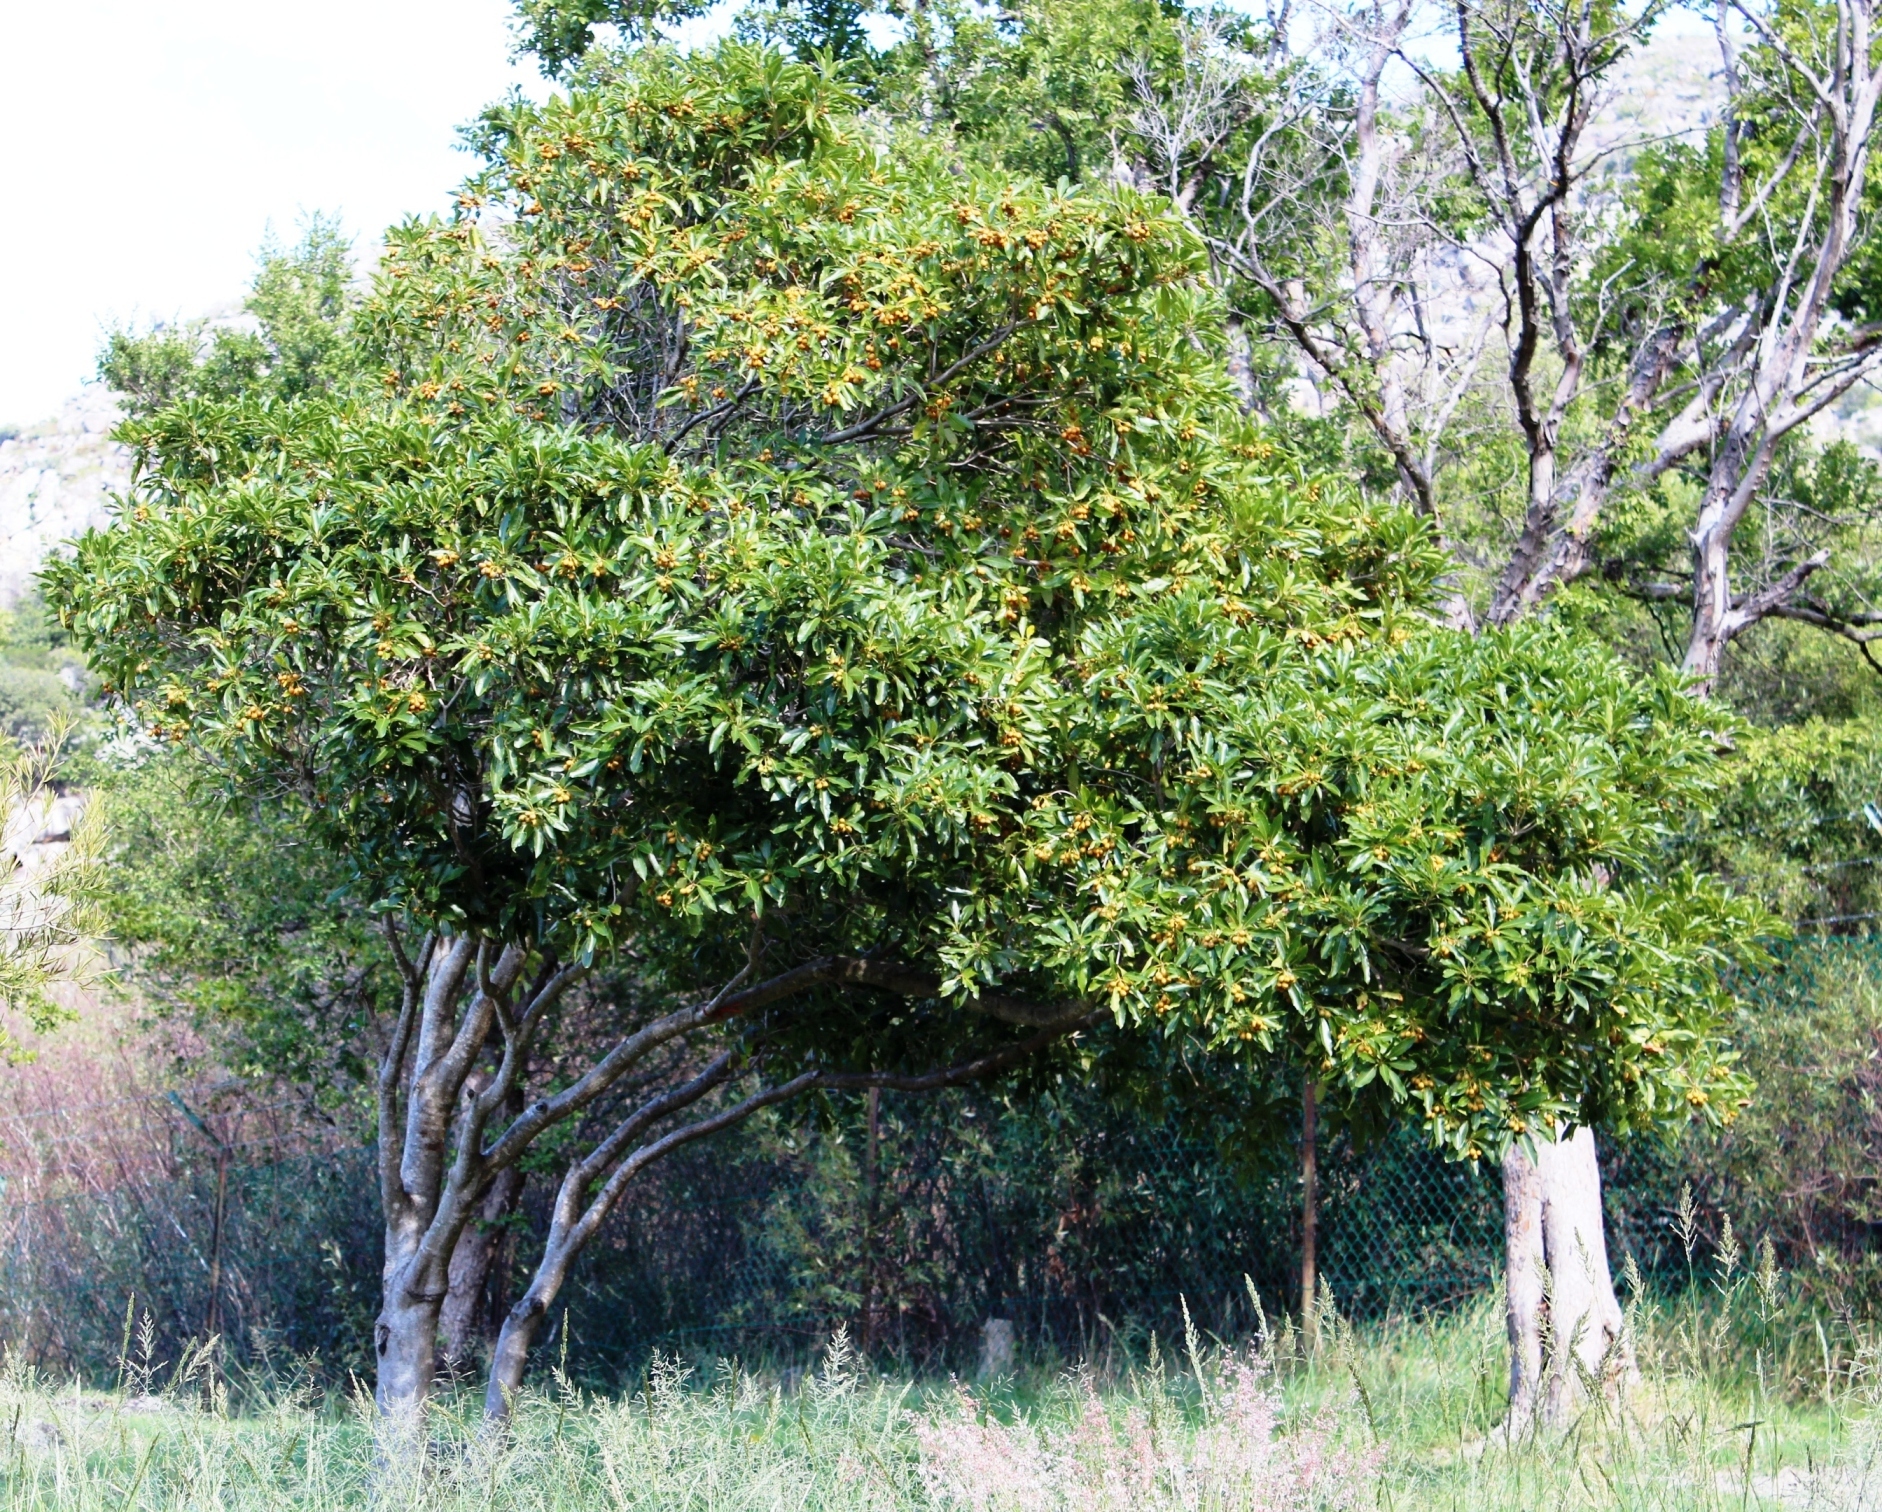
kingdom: Plantae
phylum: Tracheophyta
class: Magnoliopsida
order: Apiales
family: Pittosporaceae
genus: Pittosporum
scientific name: Pittosporum undulatum
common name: Australian cheesewood
